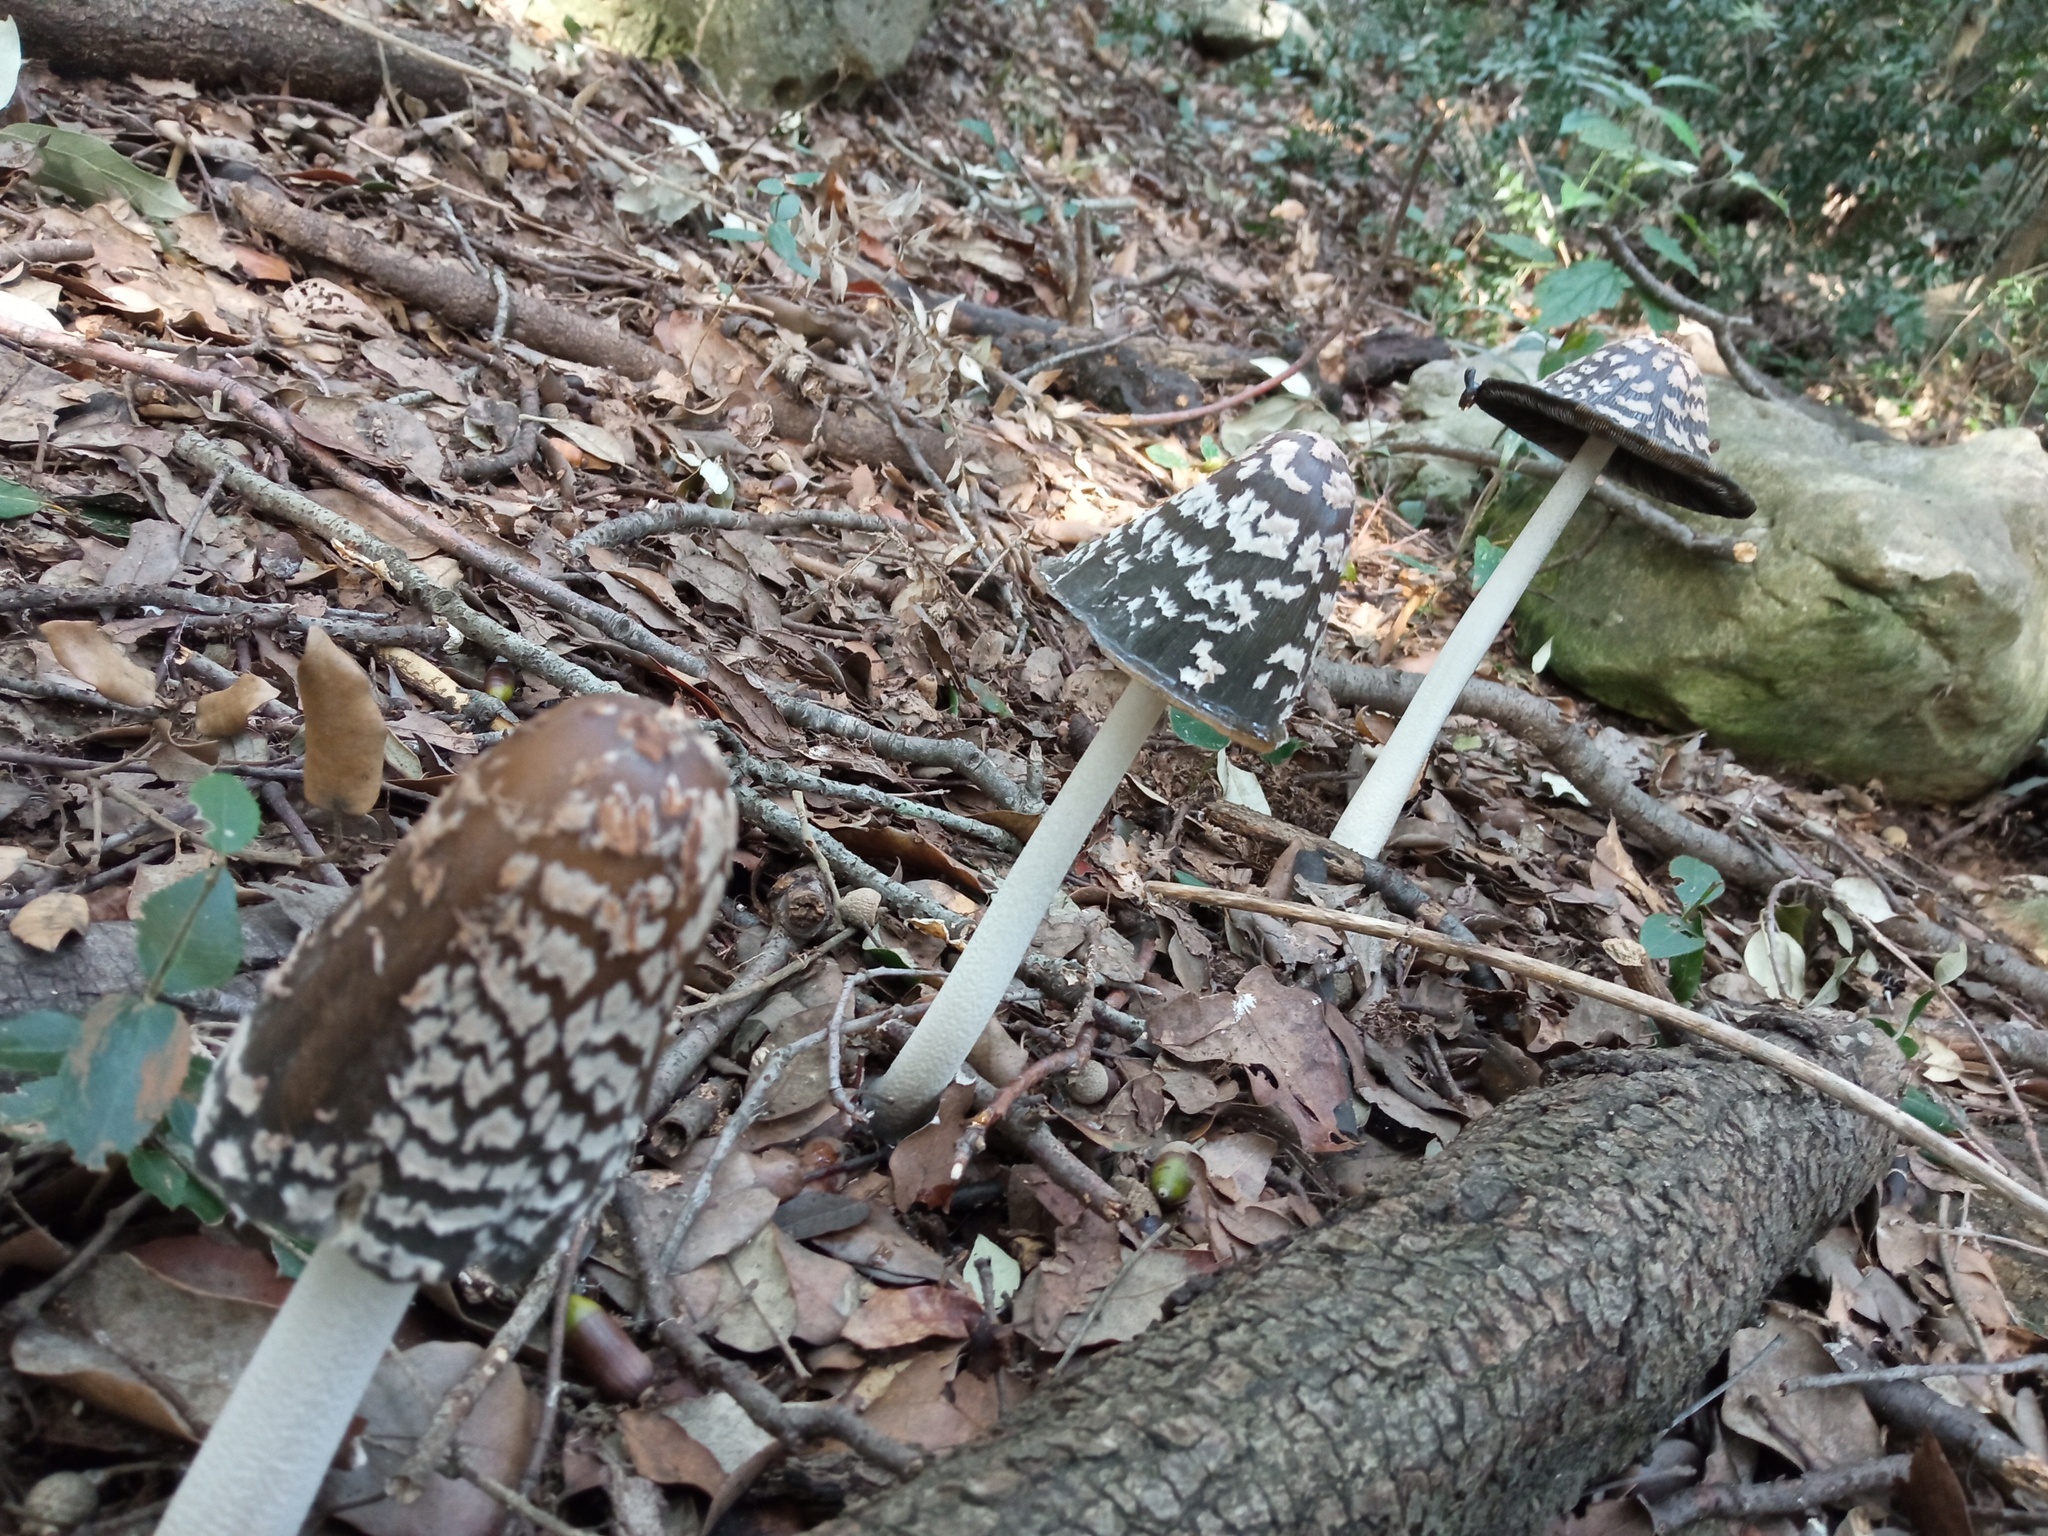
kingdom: Fungi
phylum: Basidiomycota
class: Agaricomycetes
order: Agaricales
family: Psathyrellaceae
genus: Coprinopsis
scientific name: Coprinopsis picacea
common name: Magpie inkcap
